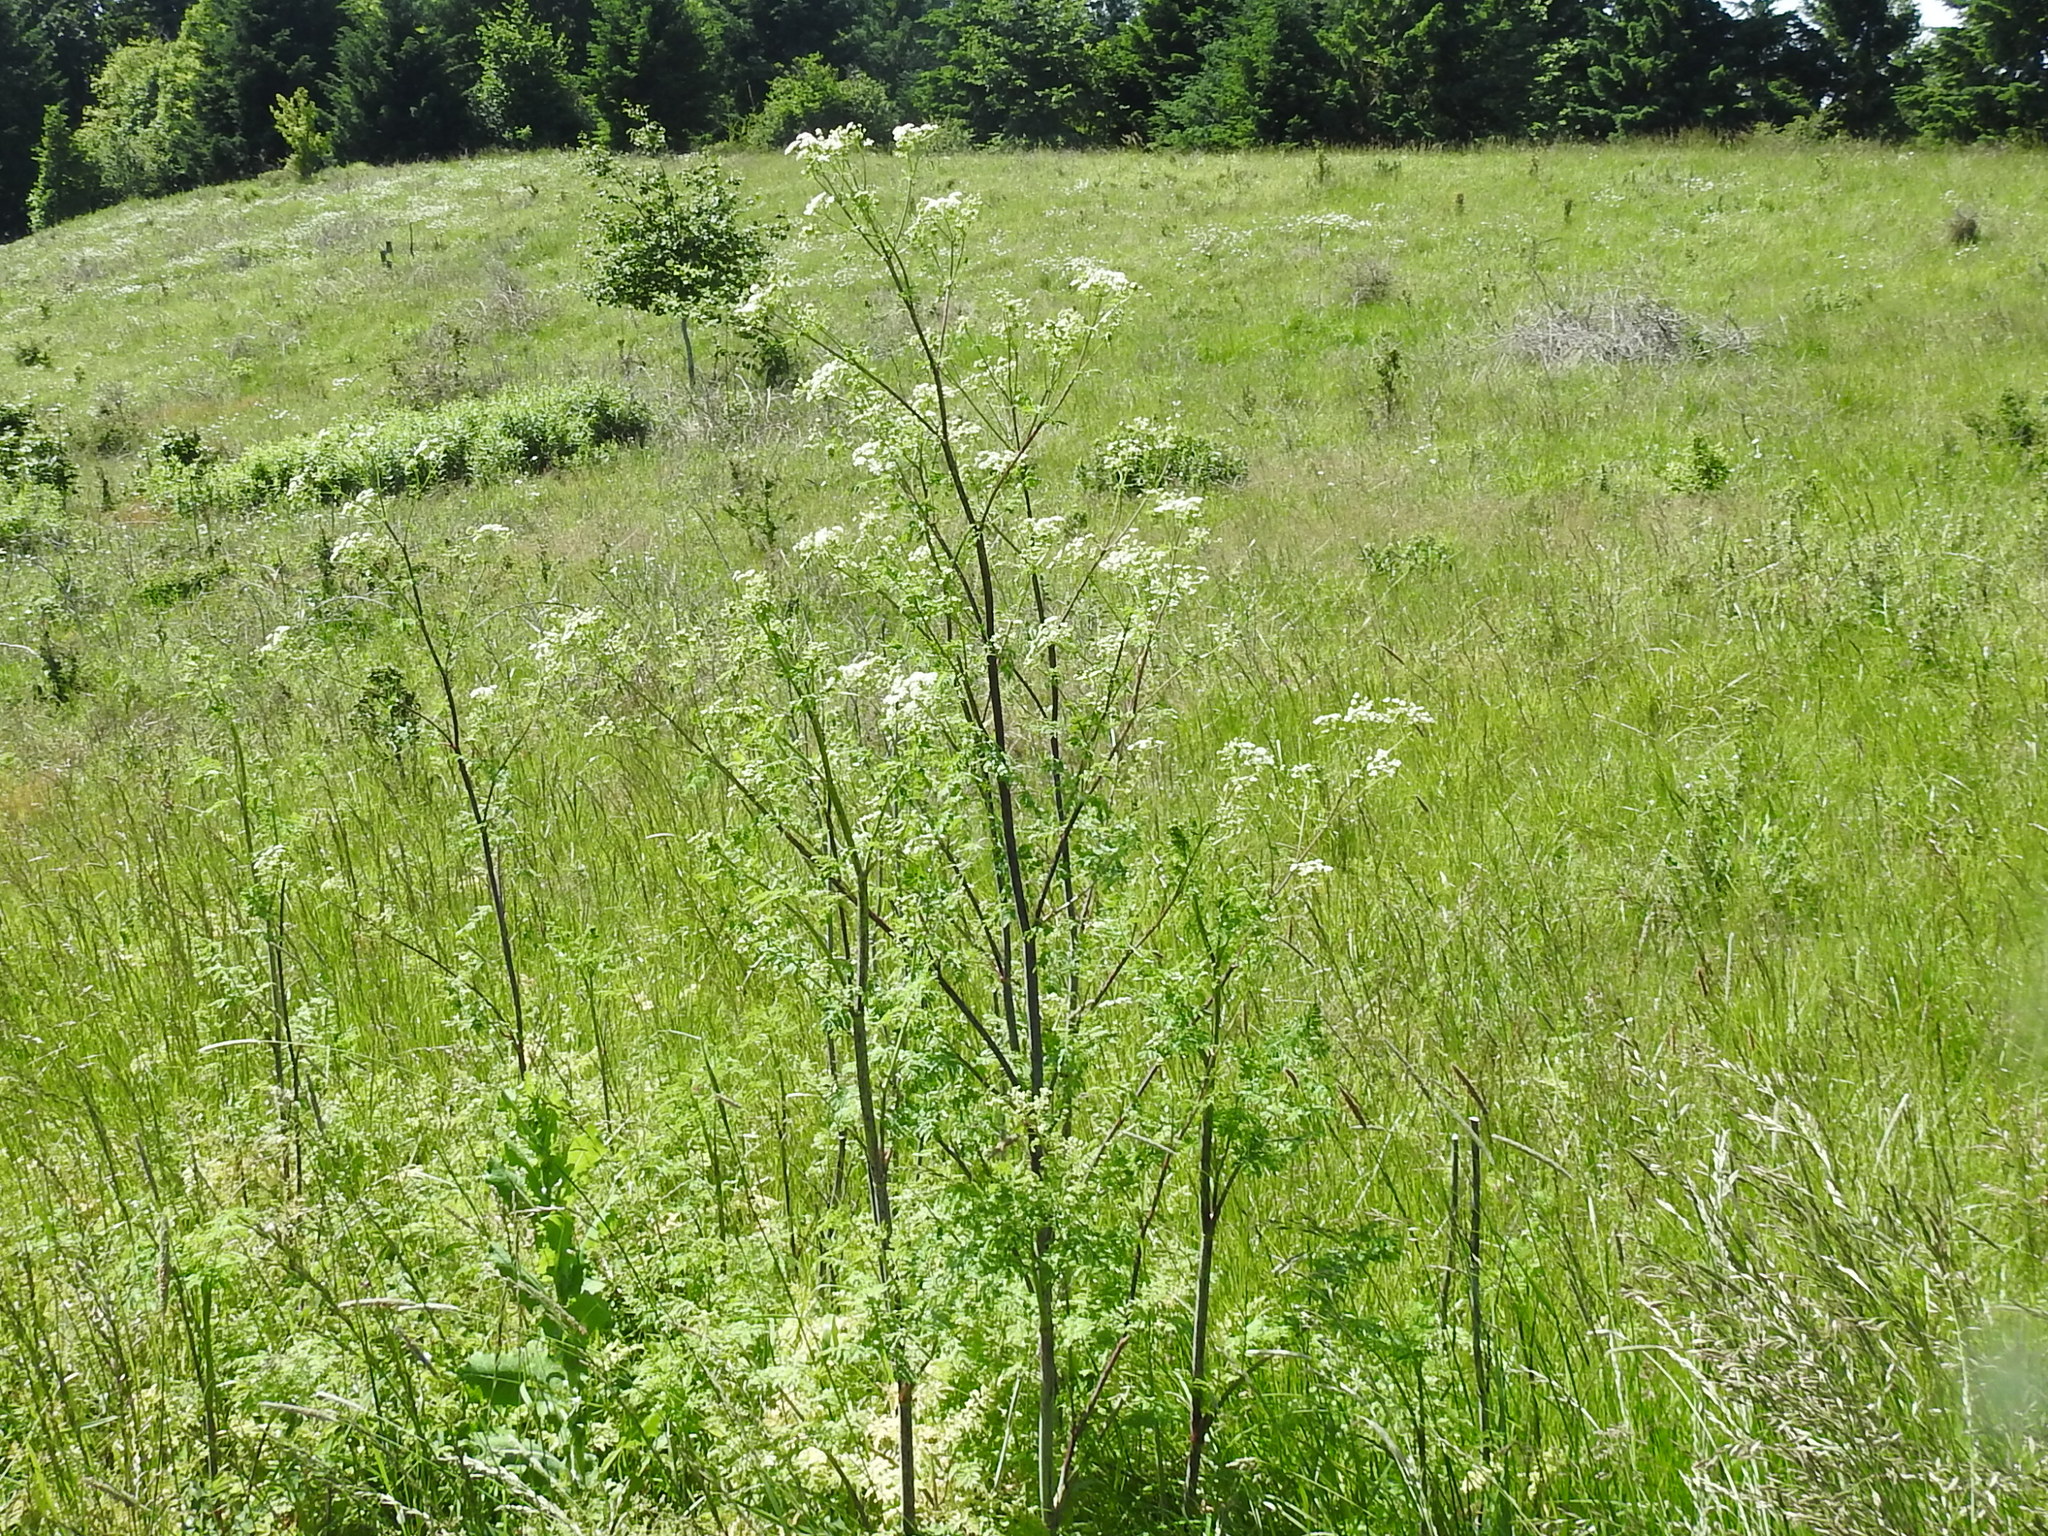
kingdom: Plantae
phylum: Tracheophyta
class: Magnoliopsida
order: Apiales
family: Apiaceae
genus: Conium
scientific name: Conium maculatum
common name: Hemlock
